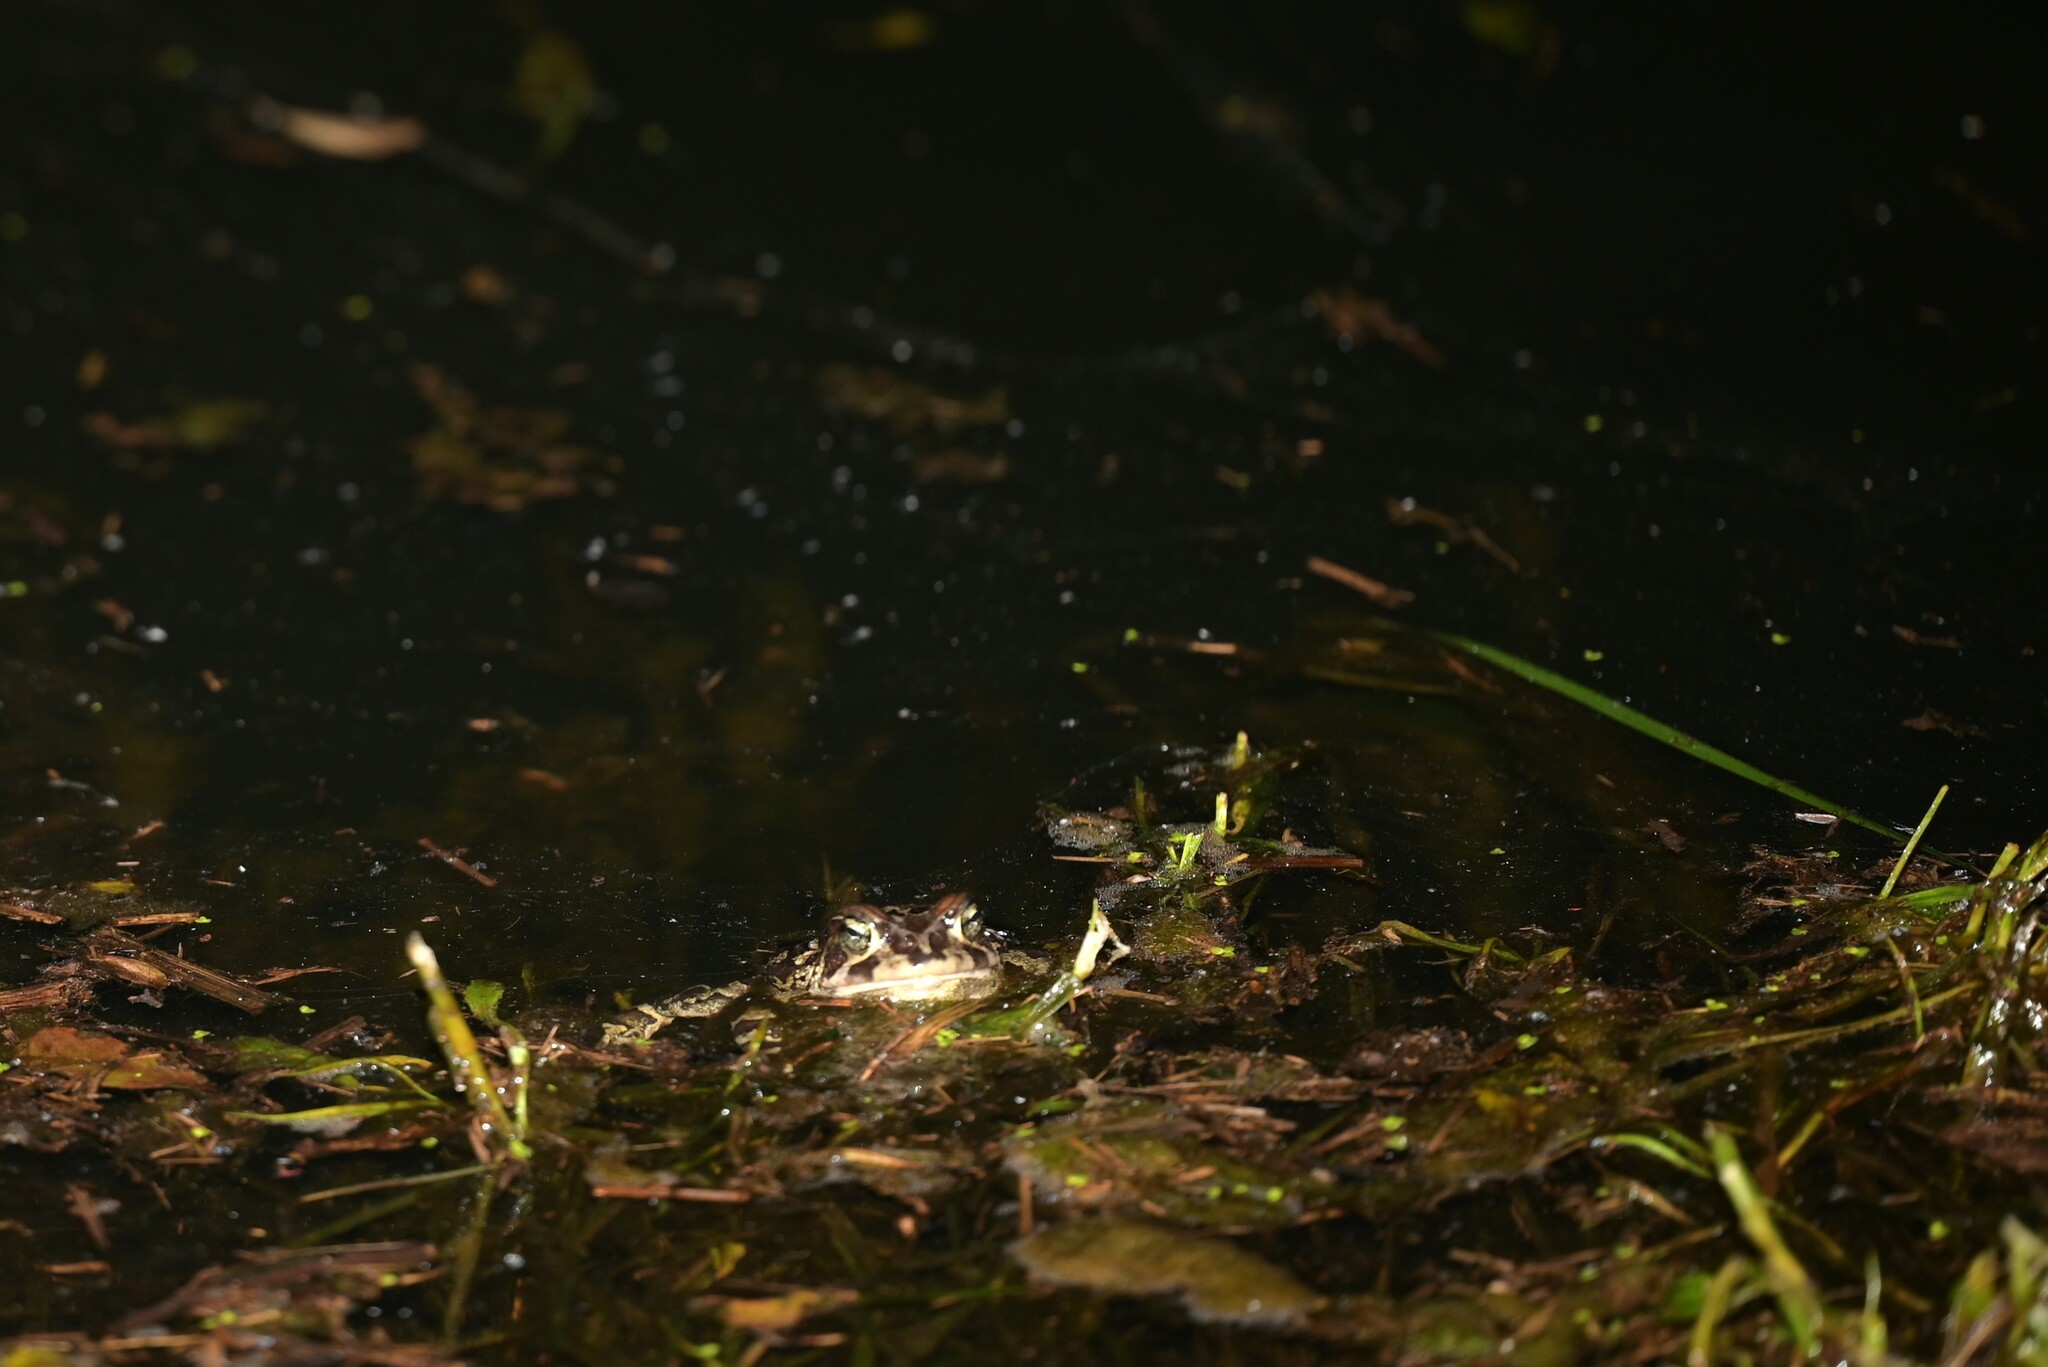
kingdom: Animalia
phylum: Chordata
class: Amphibia
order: Anura
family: Bufonidae
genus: Sclerophrys
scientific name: Sclerophrys pantherina
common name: Panther toad
